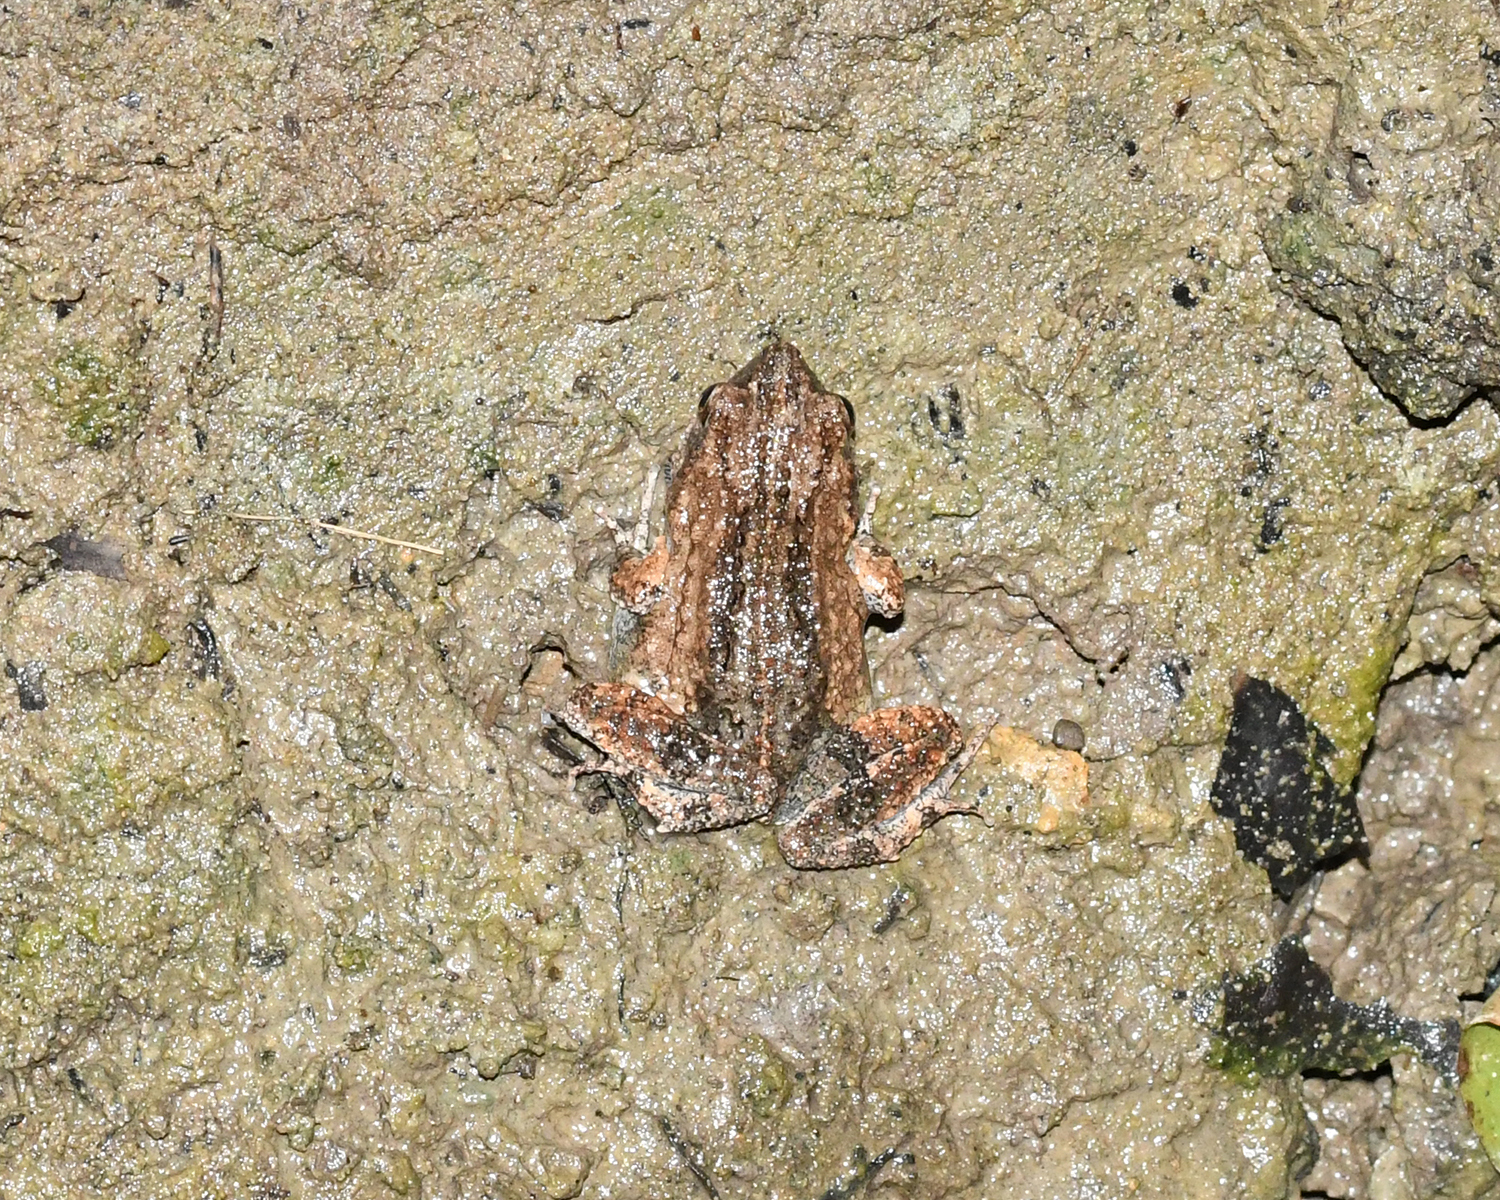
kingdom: Animalia
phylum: Chordata
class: Amphibia
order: Anura
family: Leptodactylidae
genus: Engystomops
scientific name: Engystomops pustulosus
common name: Tungara frog
